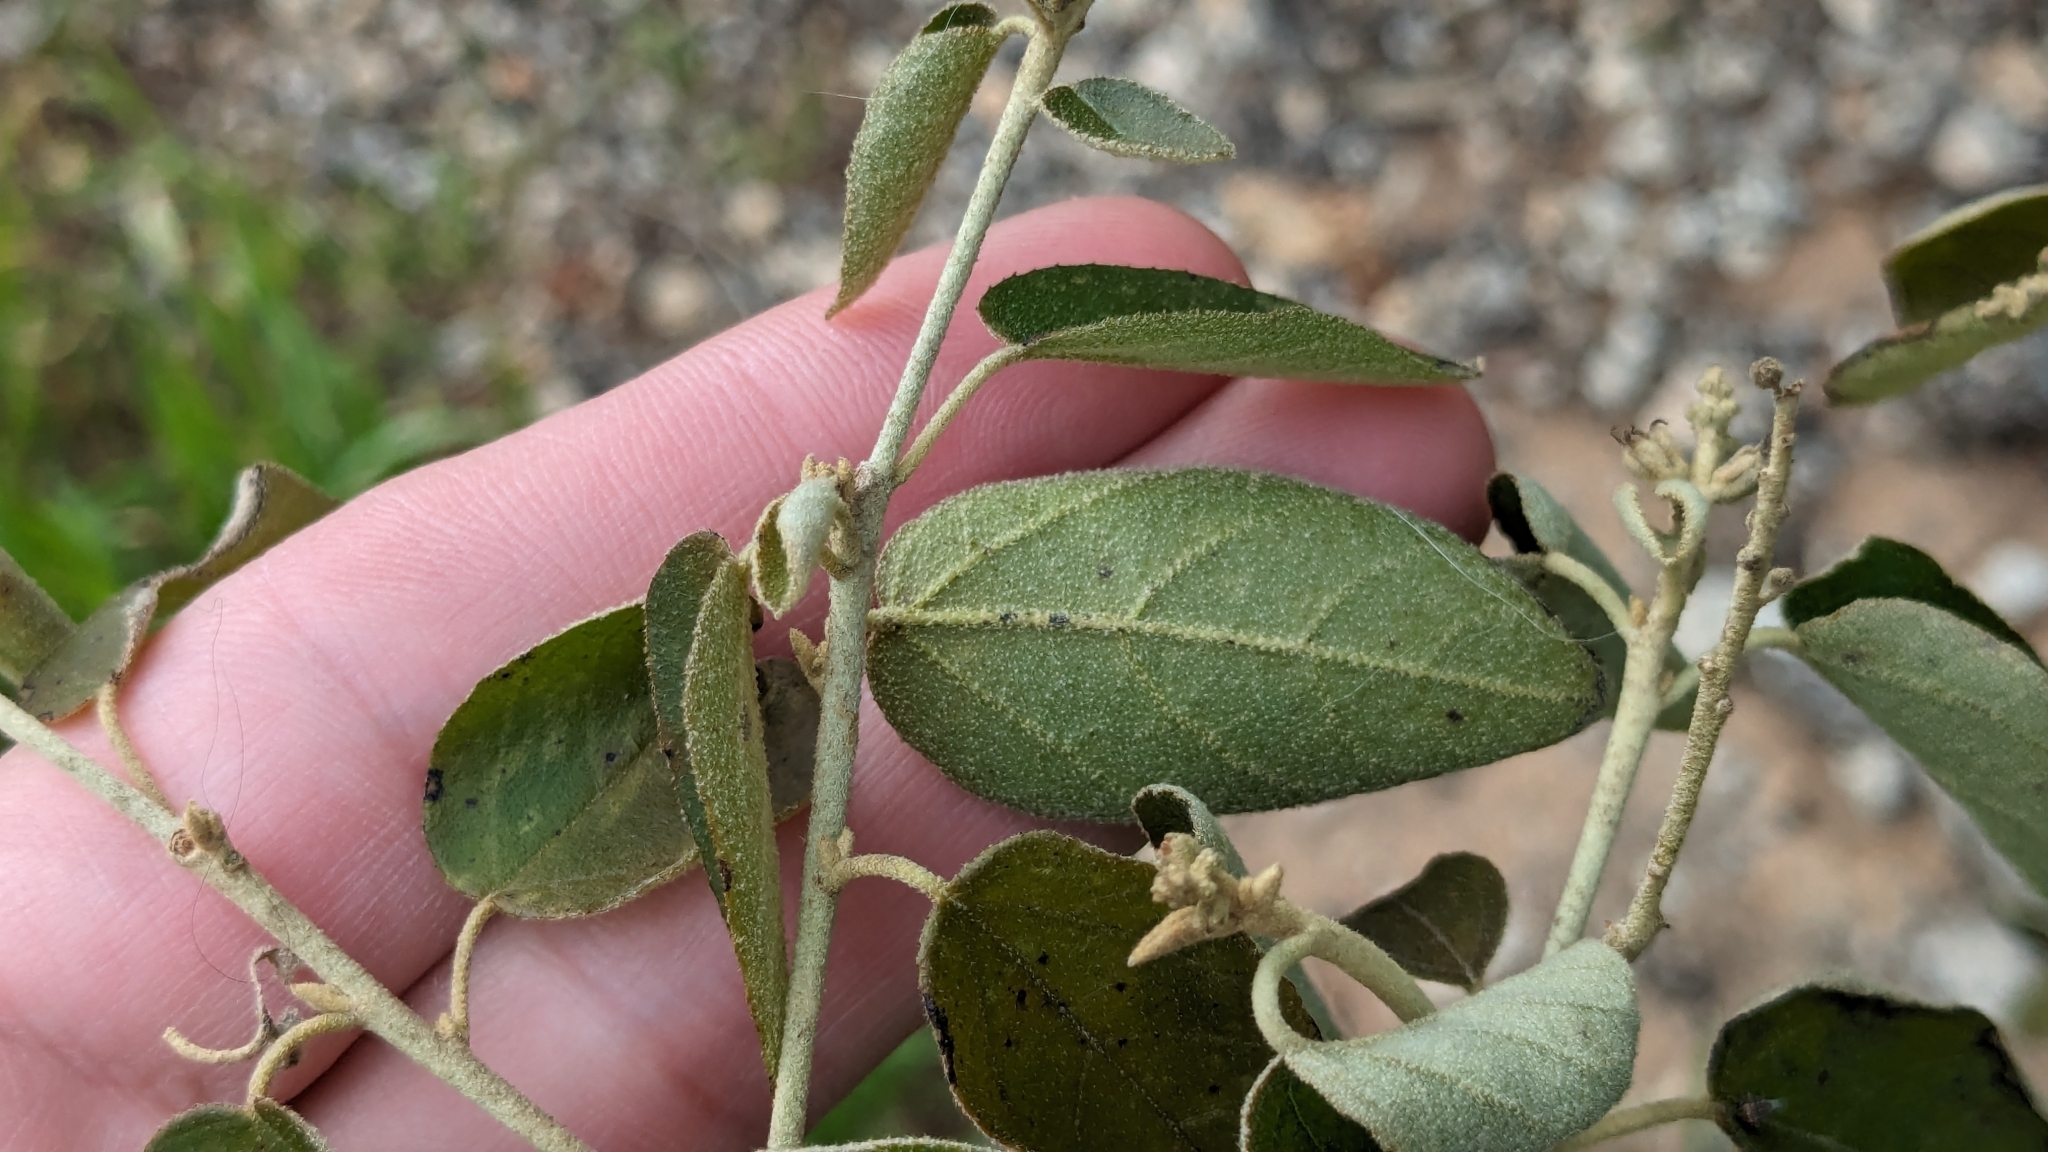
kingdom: Plantae
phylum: Tracheophyta
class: Magnoliopsida
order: Malpighiales
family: Euphorbiaceae
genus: Croton
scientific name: Croton fruticulosus
